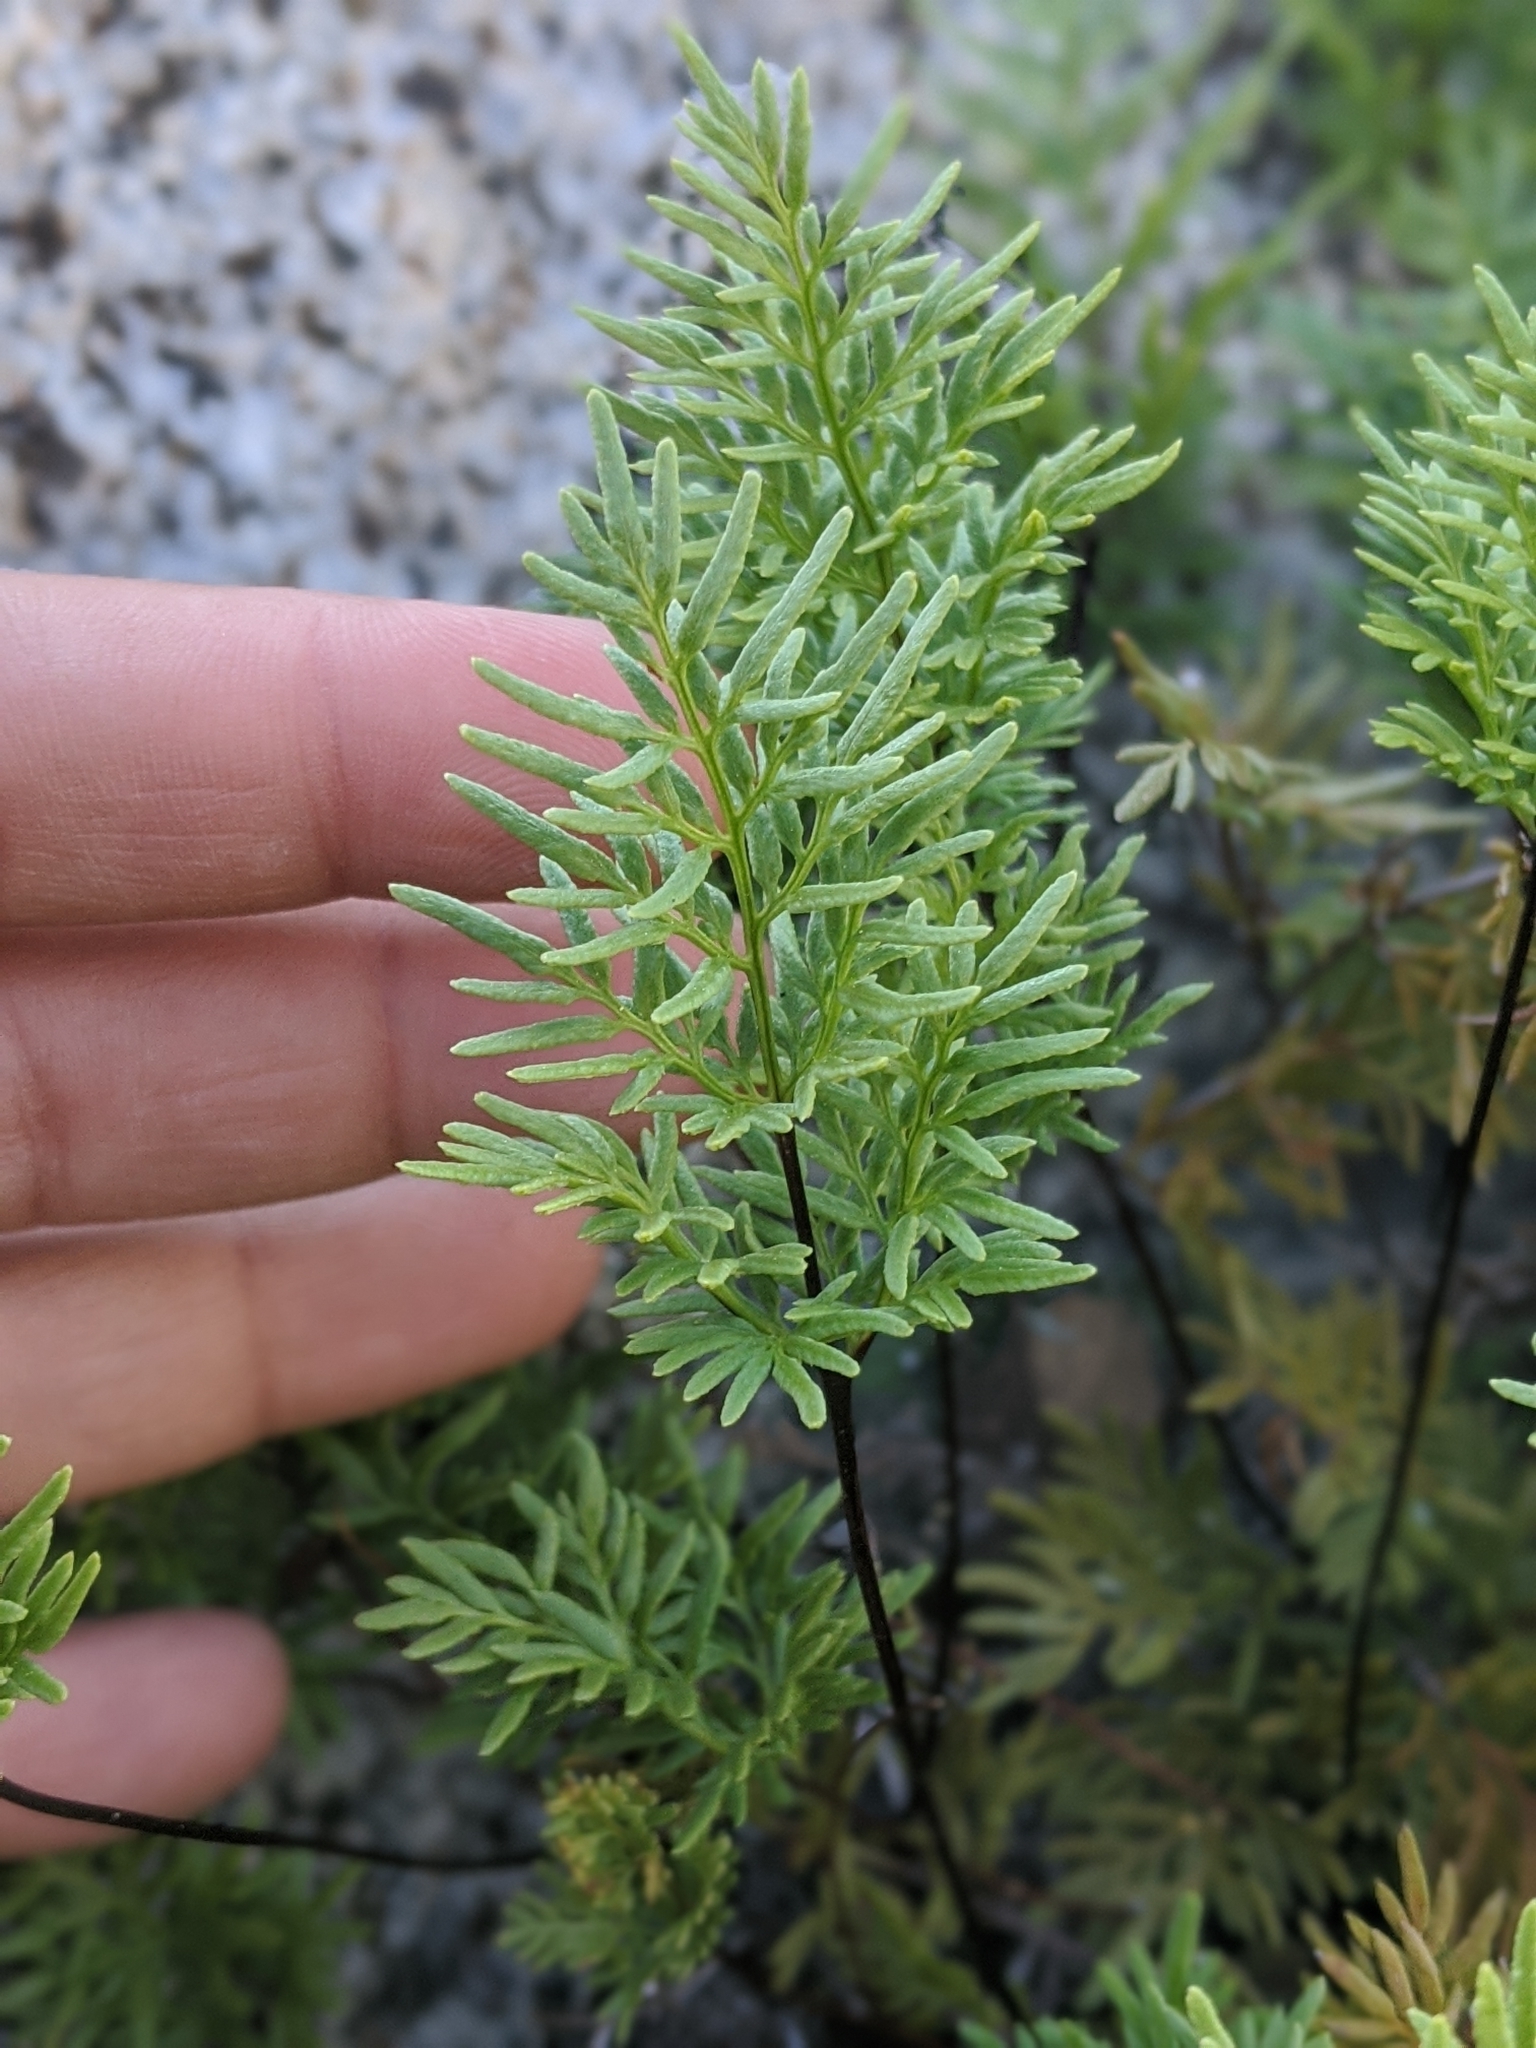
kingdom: Plantae
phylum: Tracheophyta
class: Polypodiopsida
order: Polypodiales
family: Pteridaceae
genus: Aspidotis
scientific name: Aspidotis densa
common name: Indian's dream
